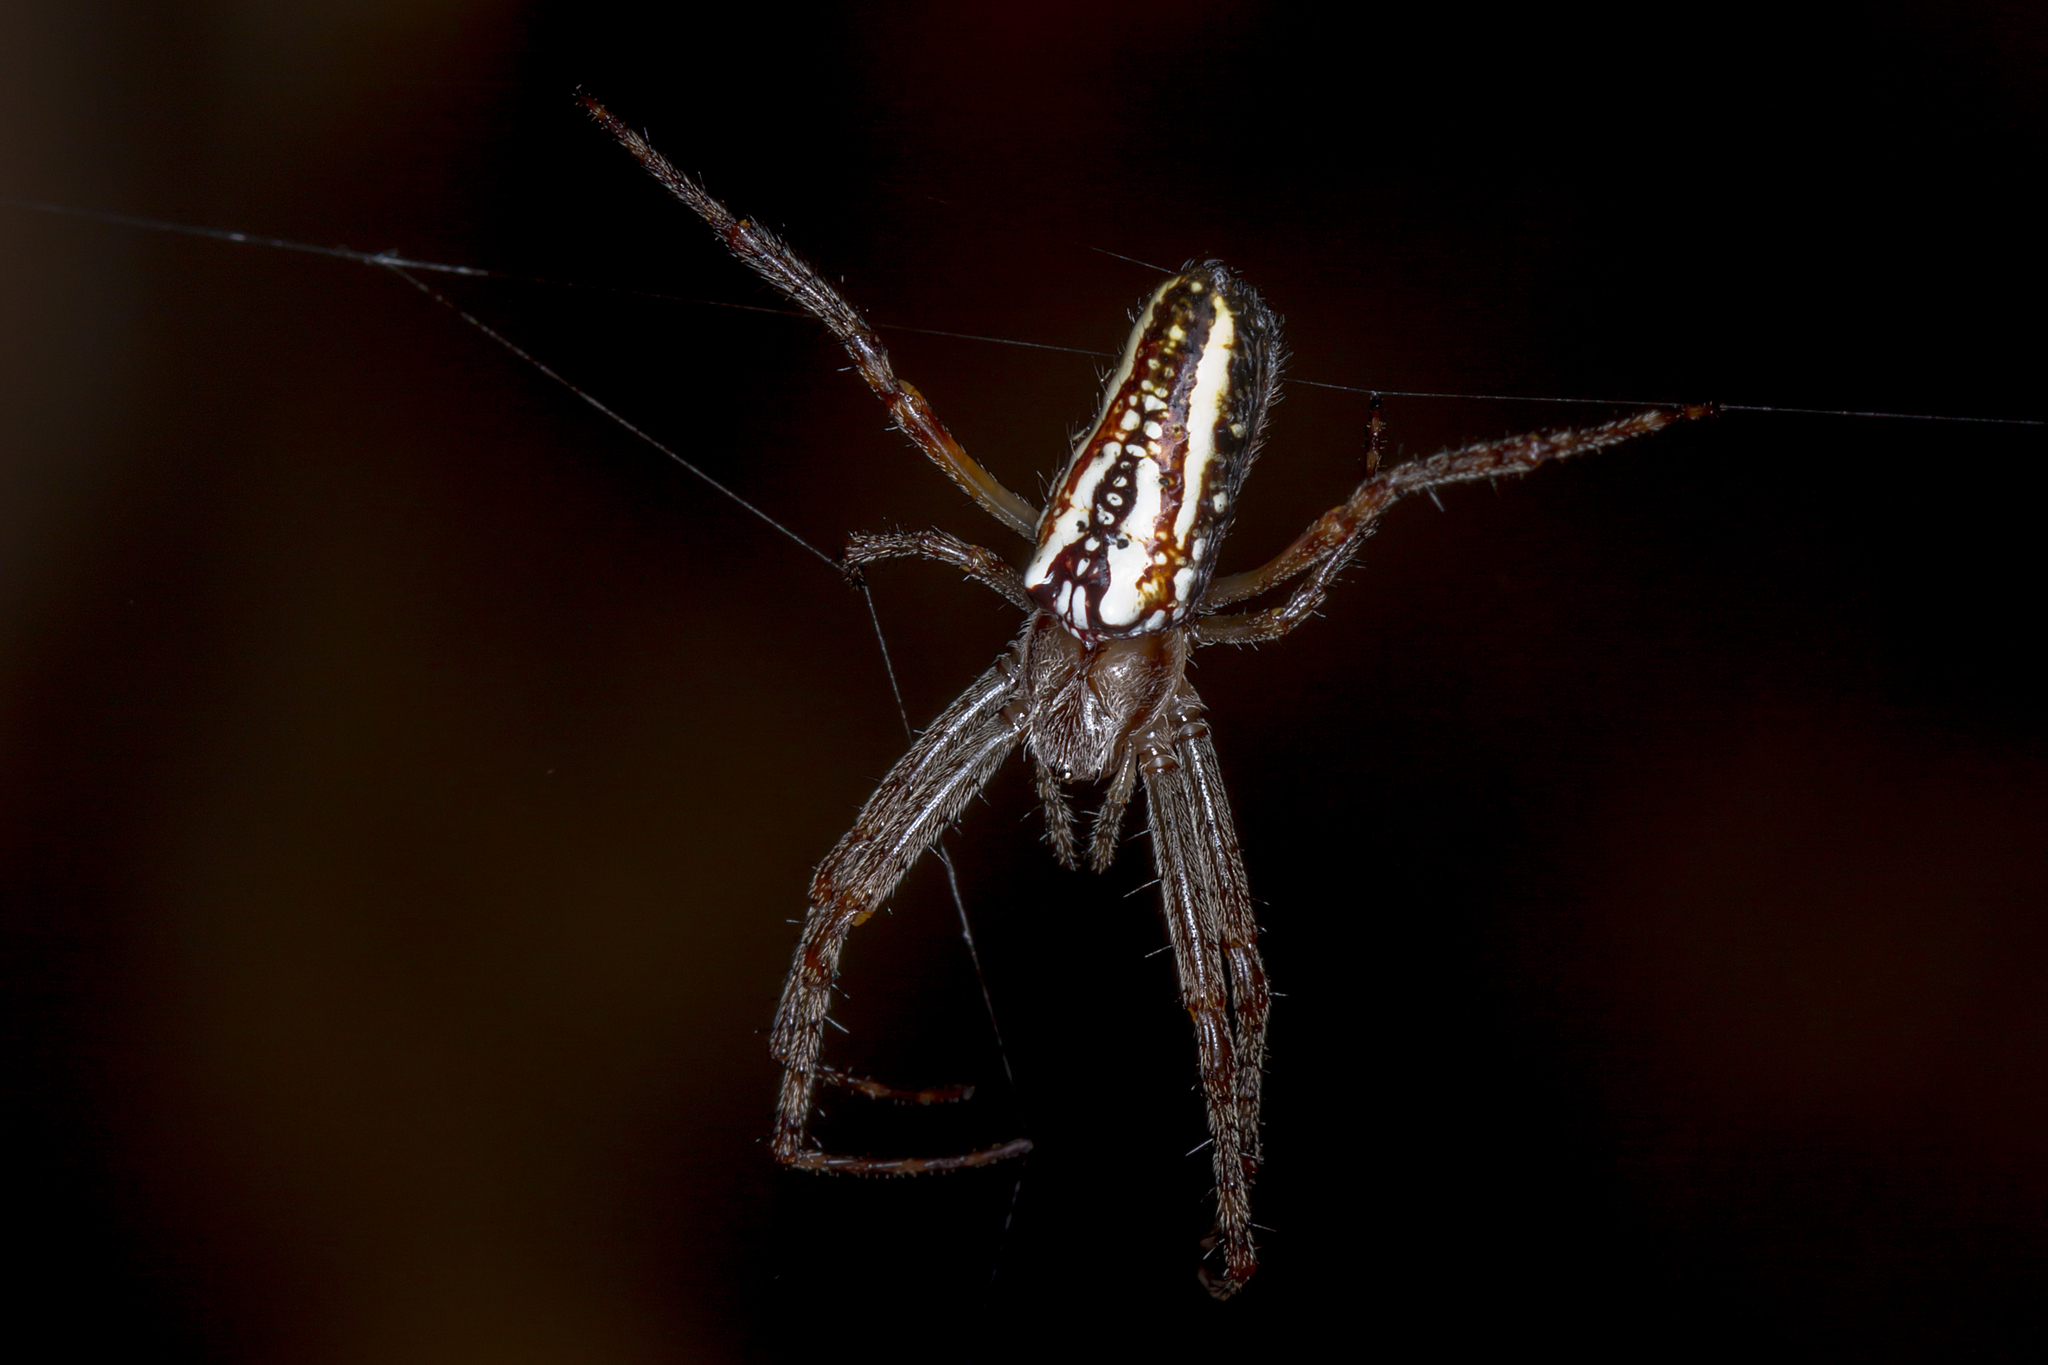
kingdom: Animalia
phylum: Arthropoda
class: Arachnida
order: Araneae
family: Araneidae
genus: Plebs
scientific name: Plebs bradleyi
